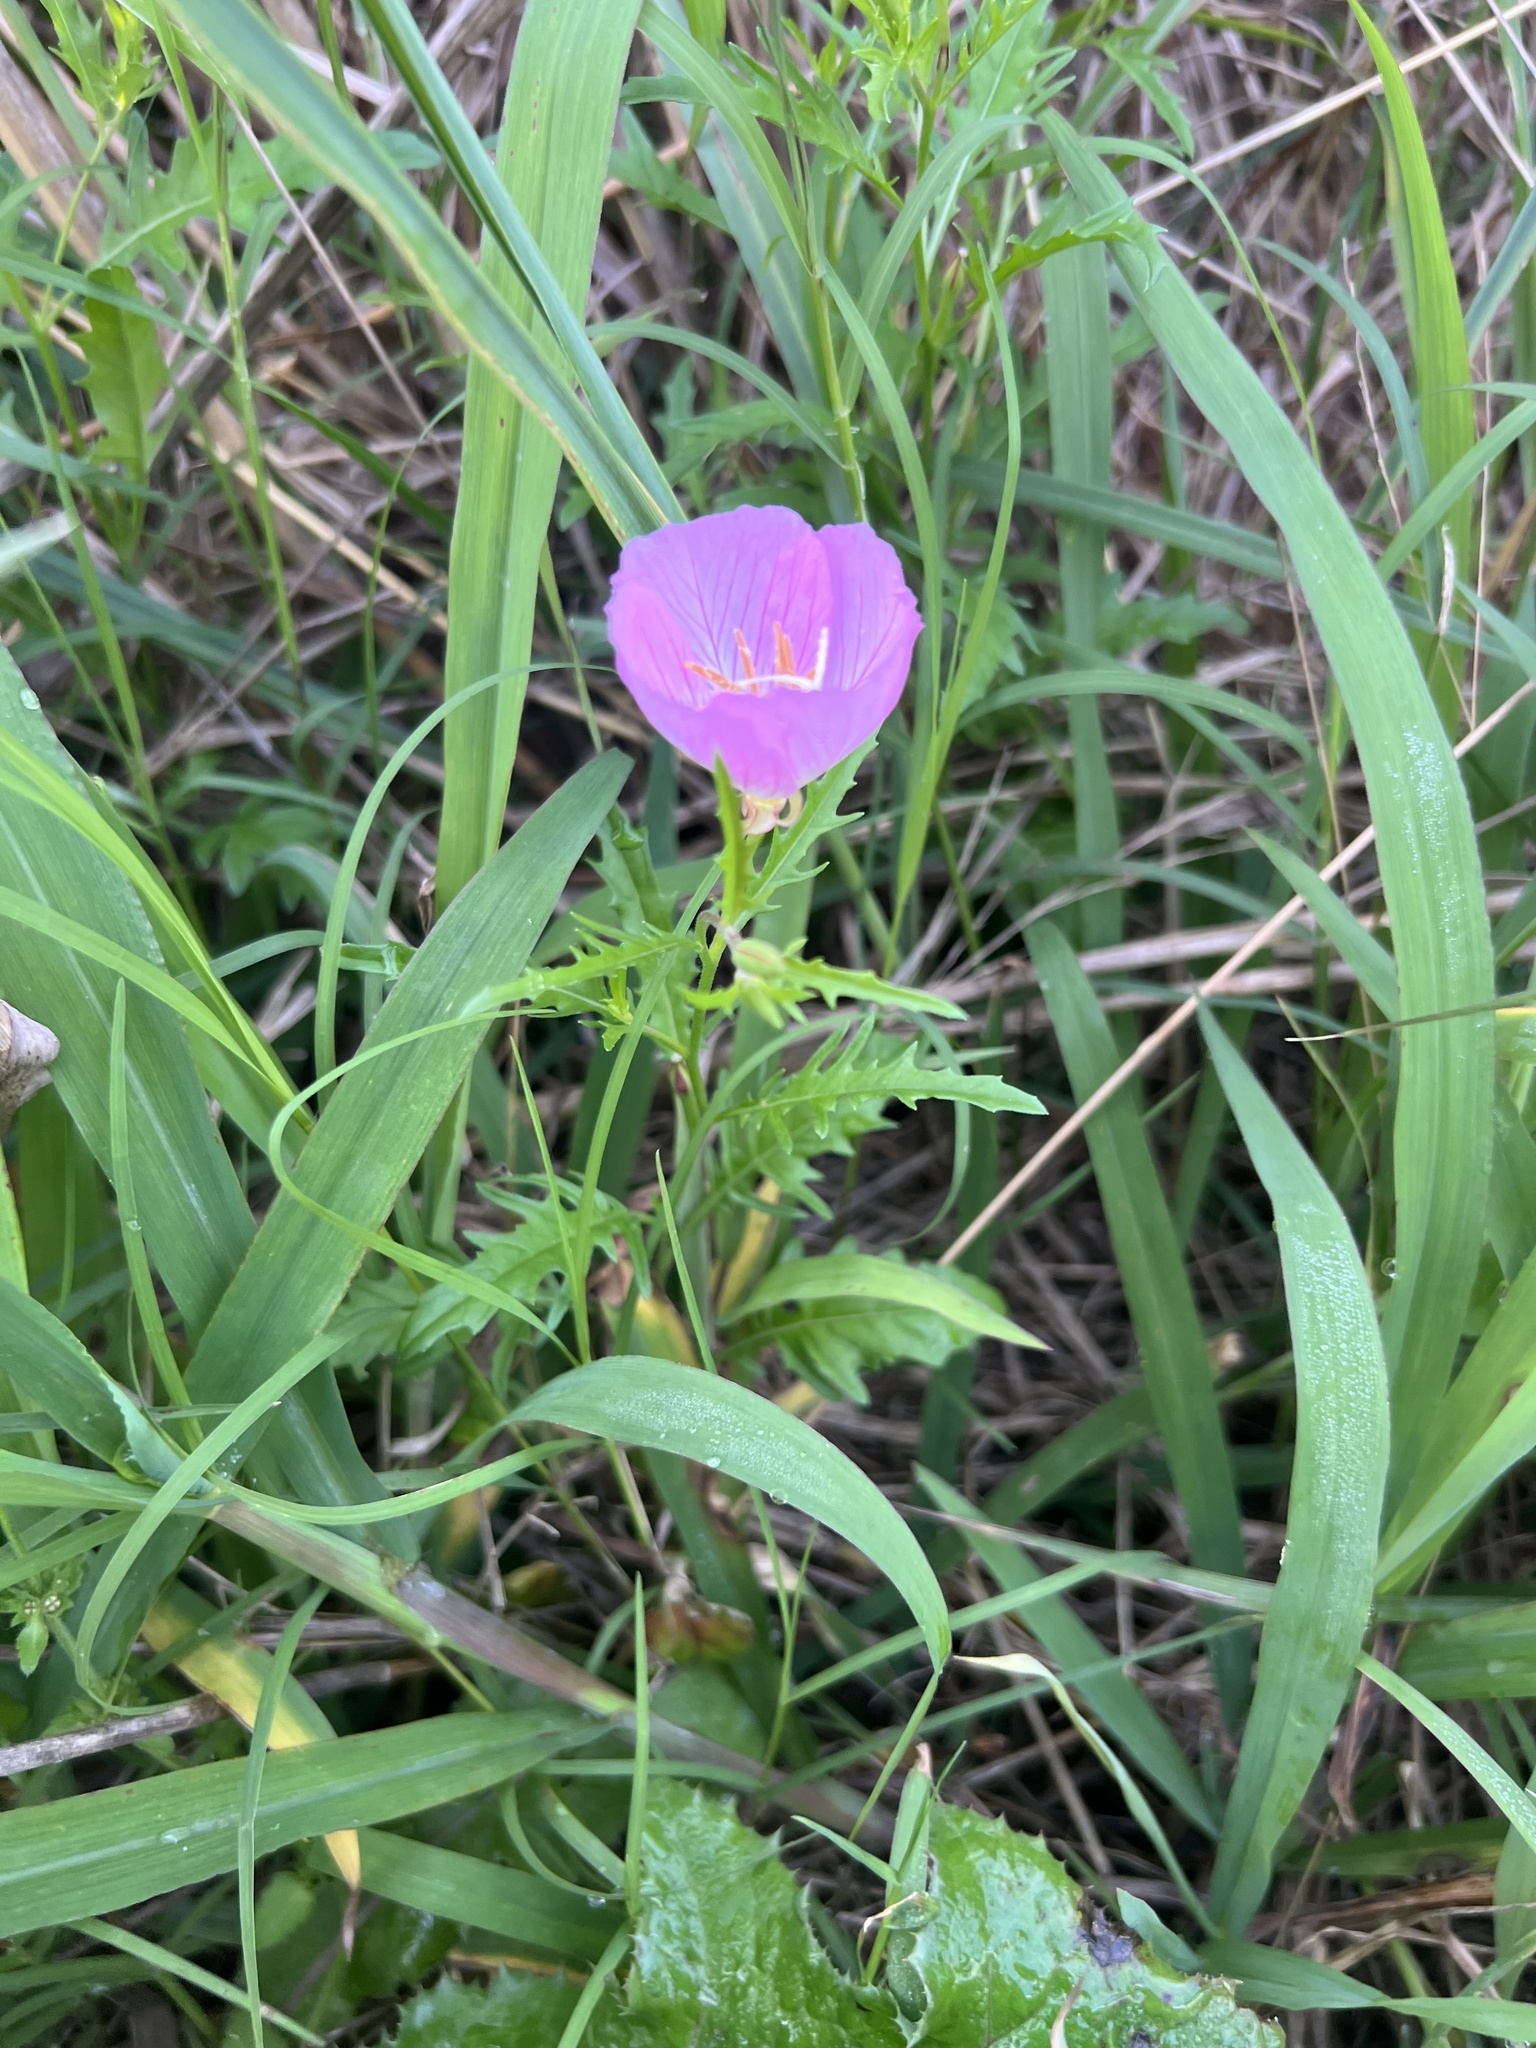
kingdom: Plantae
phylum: Tracheophyta
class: Magnoliopsida
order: Myrtales
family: Onagraceae
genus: Oenothera
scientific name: Oenothera speciosa
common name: White evening-primrose
